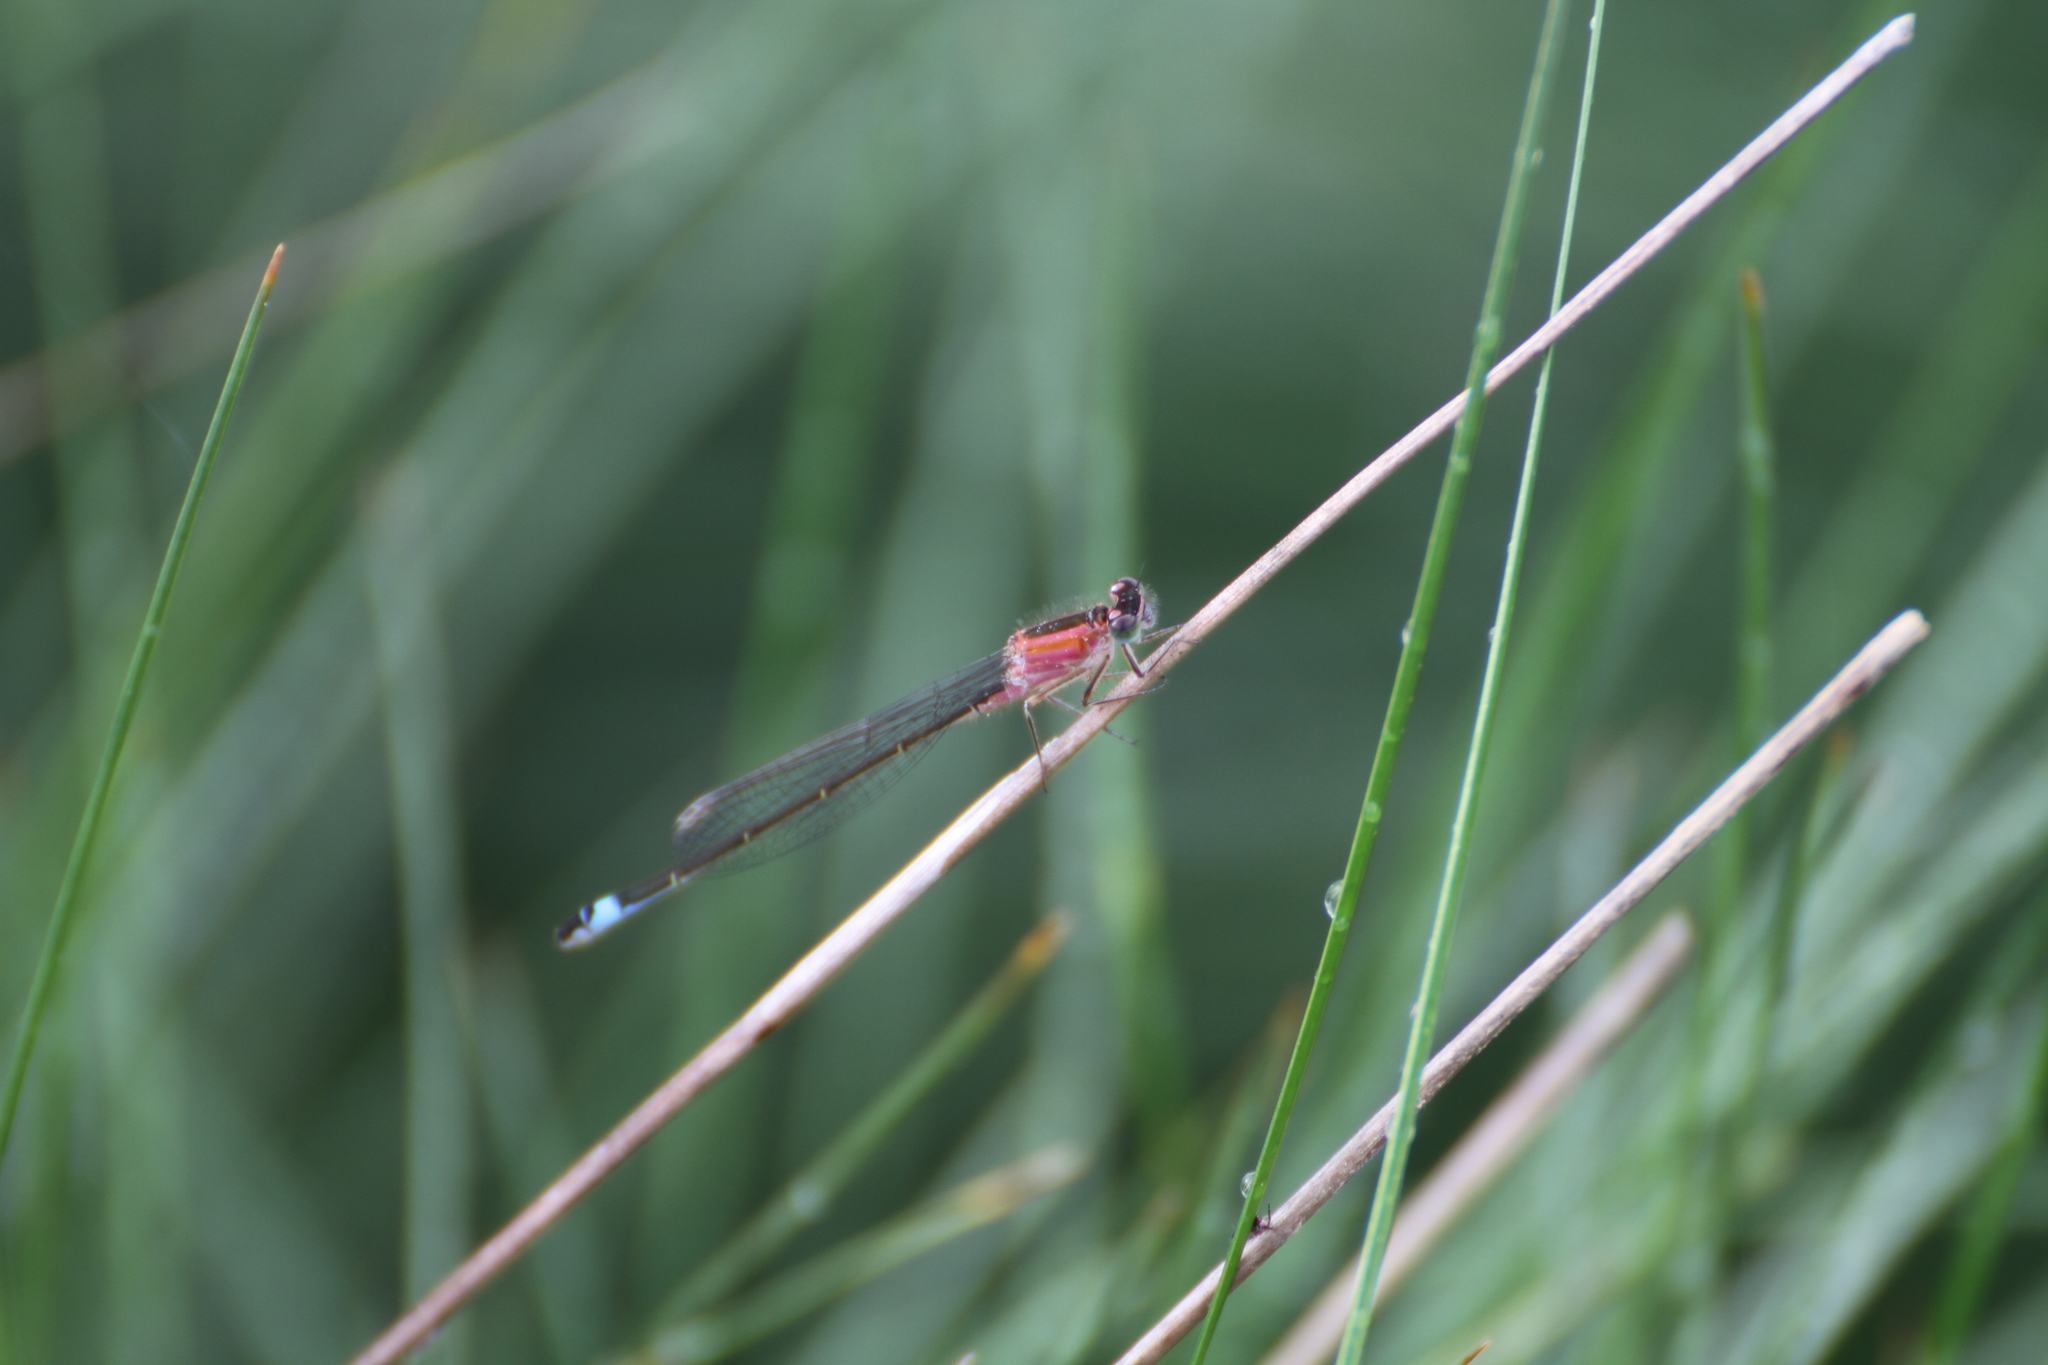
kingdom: Animalia
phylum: Arthropoda
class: Insecta
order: Odonata
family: Coenagrionidae
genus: Ischnura
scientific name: Ischnura elegans
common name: Blue-tailed damselfly
